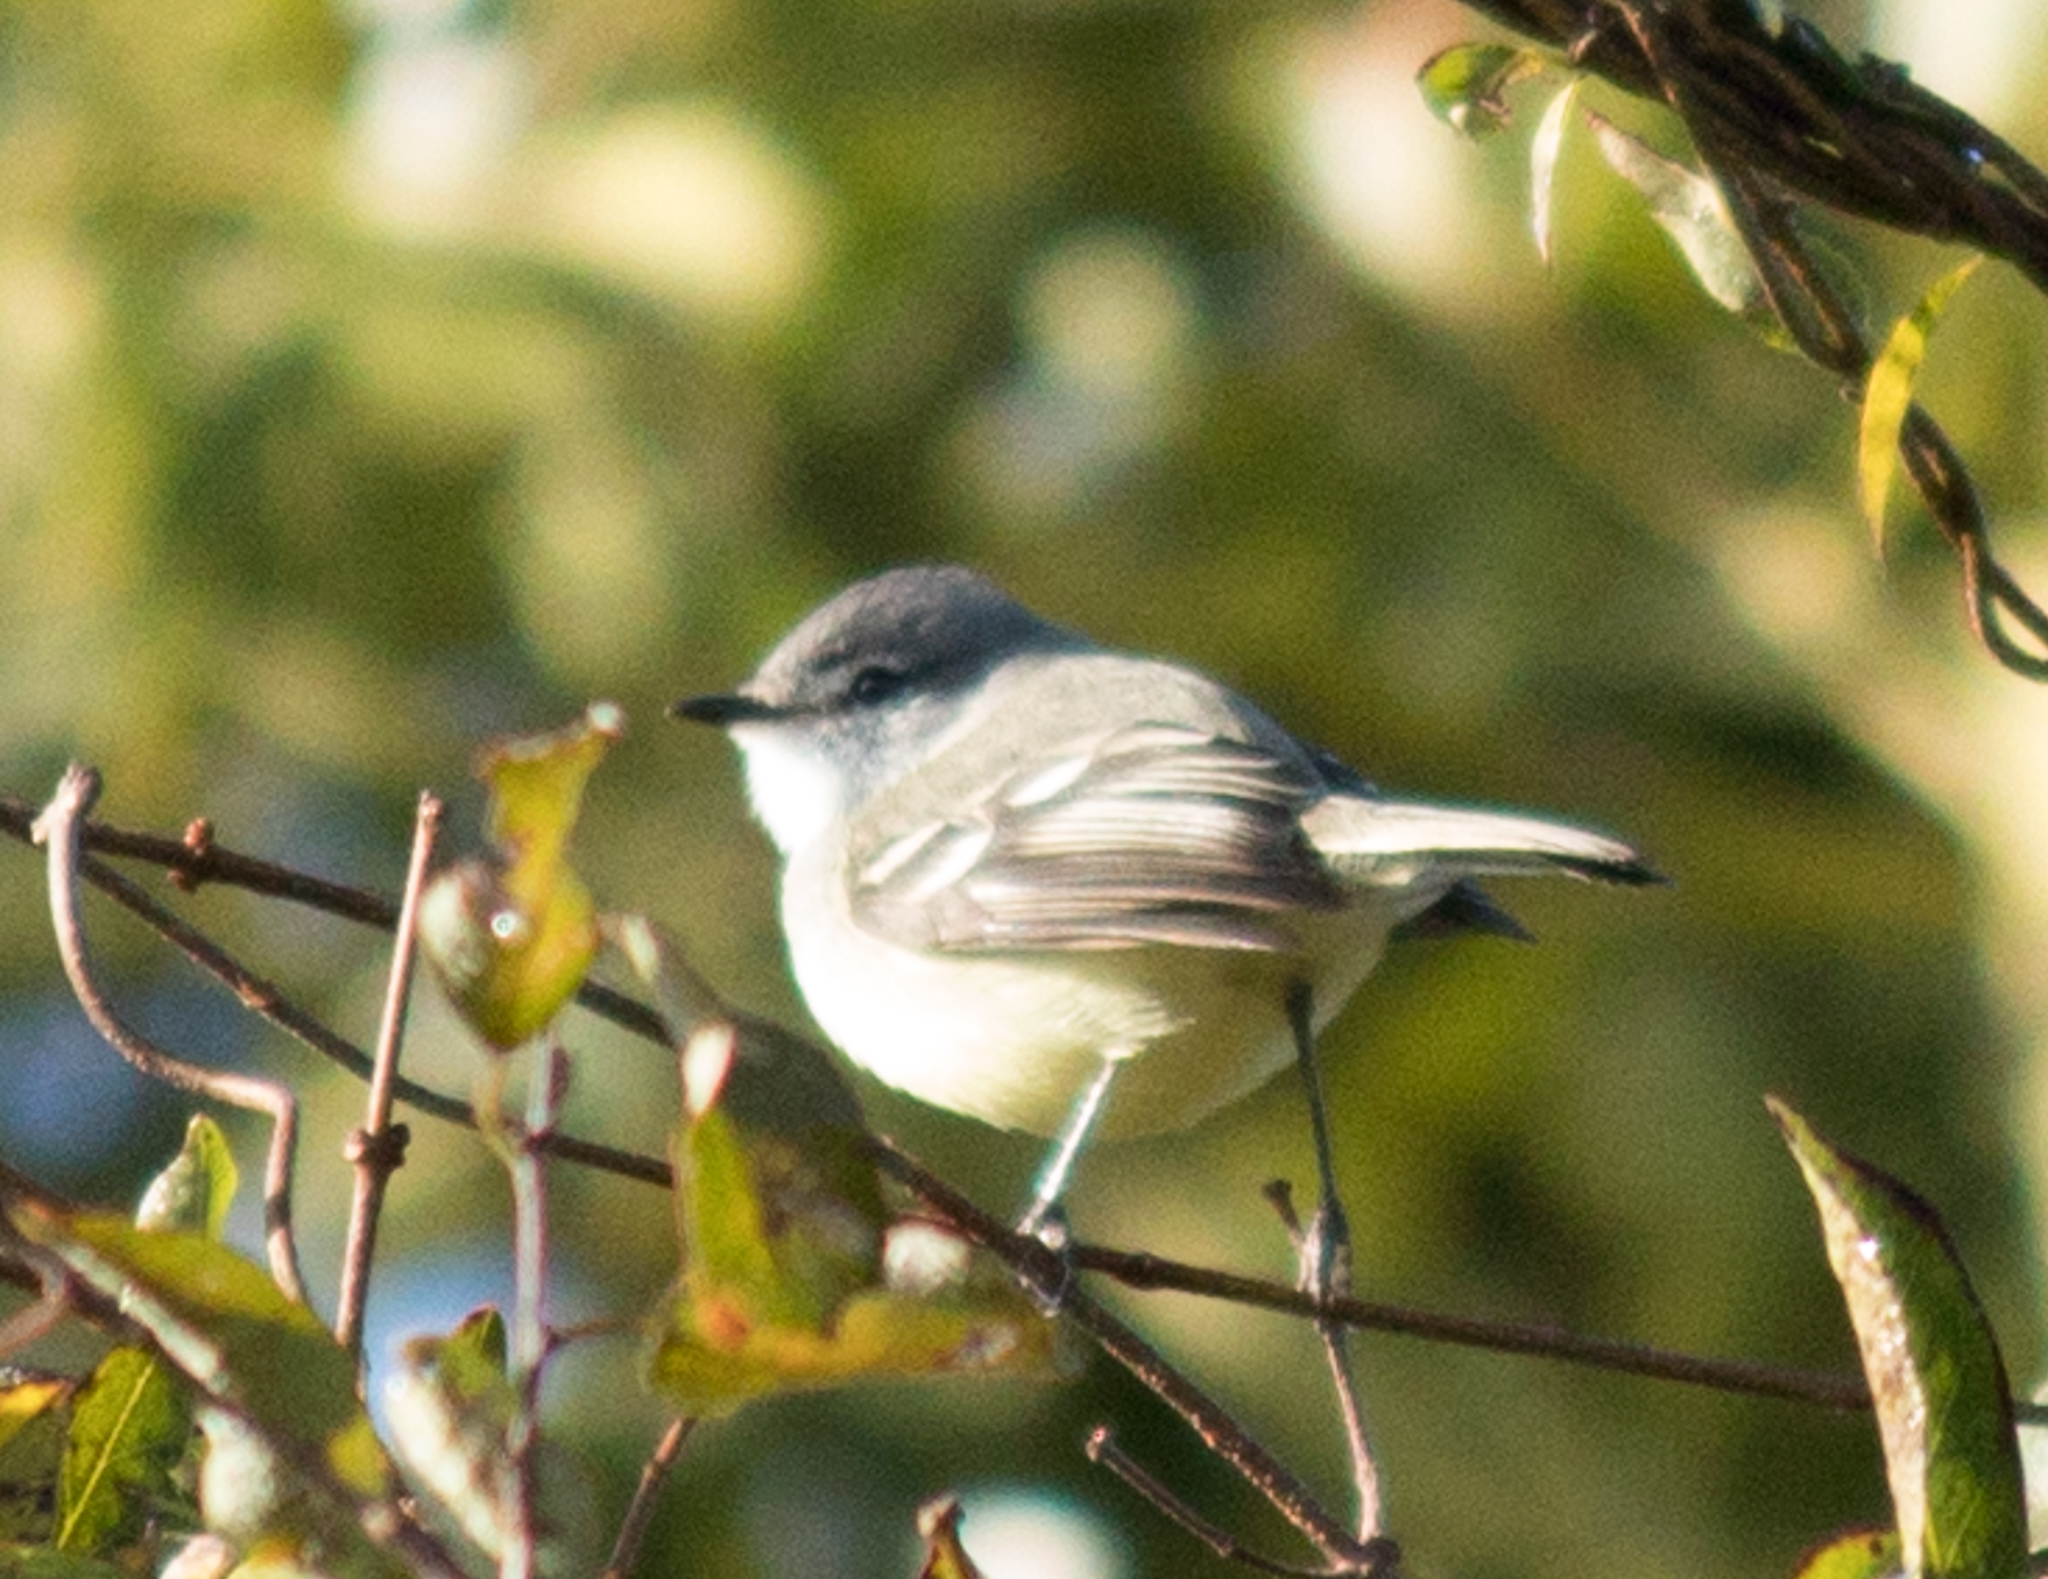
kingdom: Animalia
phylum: Chordata
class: Aves
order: Passeriformes
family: Tyrannidae
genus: Serpophaga
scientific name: Serpophaga subcristata
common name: White-crested tyrannulet
